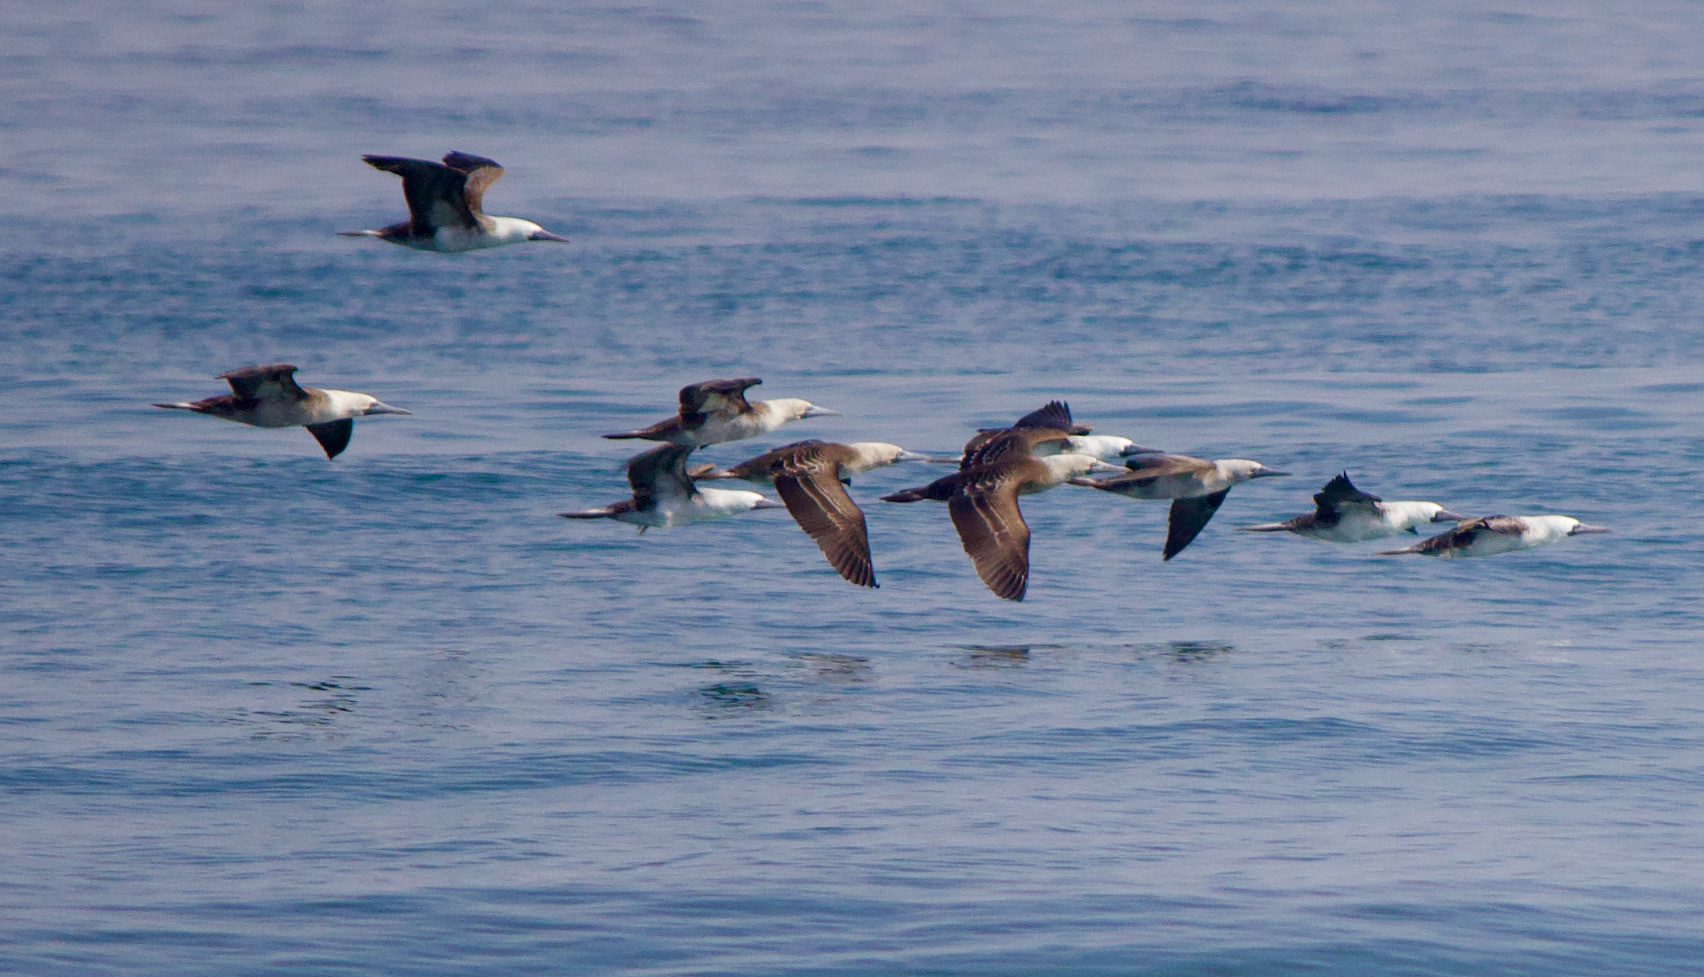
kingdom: Animalia
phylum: Chordata
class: Aves
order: Suliformes
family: Sulidae
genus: Sula
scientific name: Sula variegata
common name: Peruvian booby
